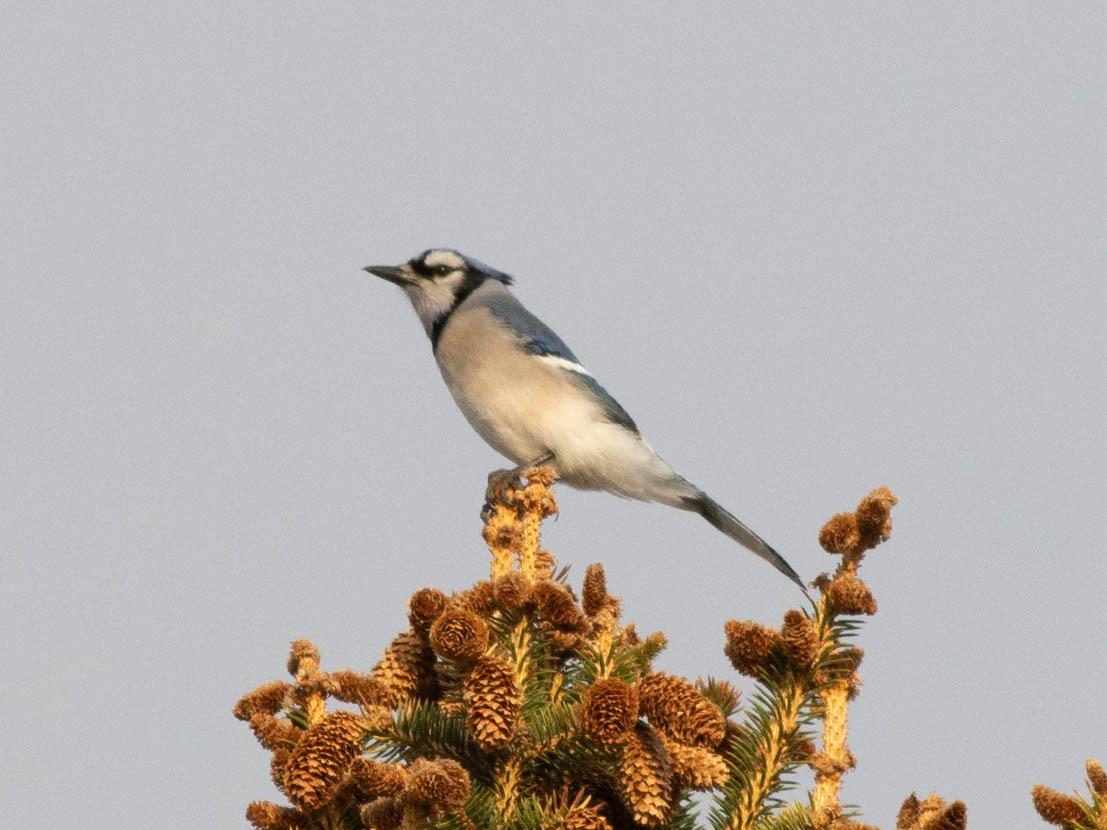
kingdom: Animalia
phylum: Chordata
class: Aves
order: Passeriformes
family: Corvidae
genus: Cyanocitta
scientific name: Cyanocitta cristata
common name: Blue jay
